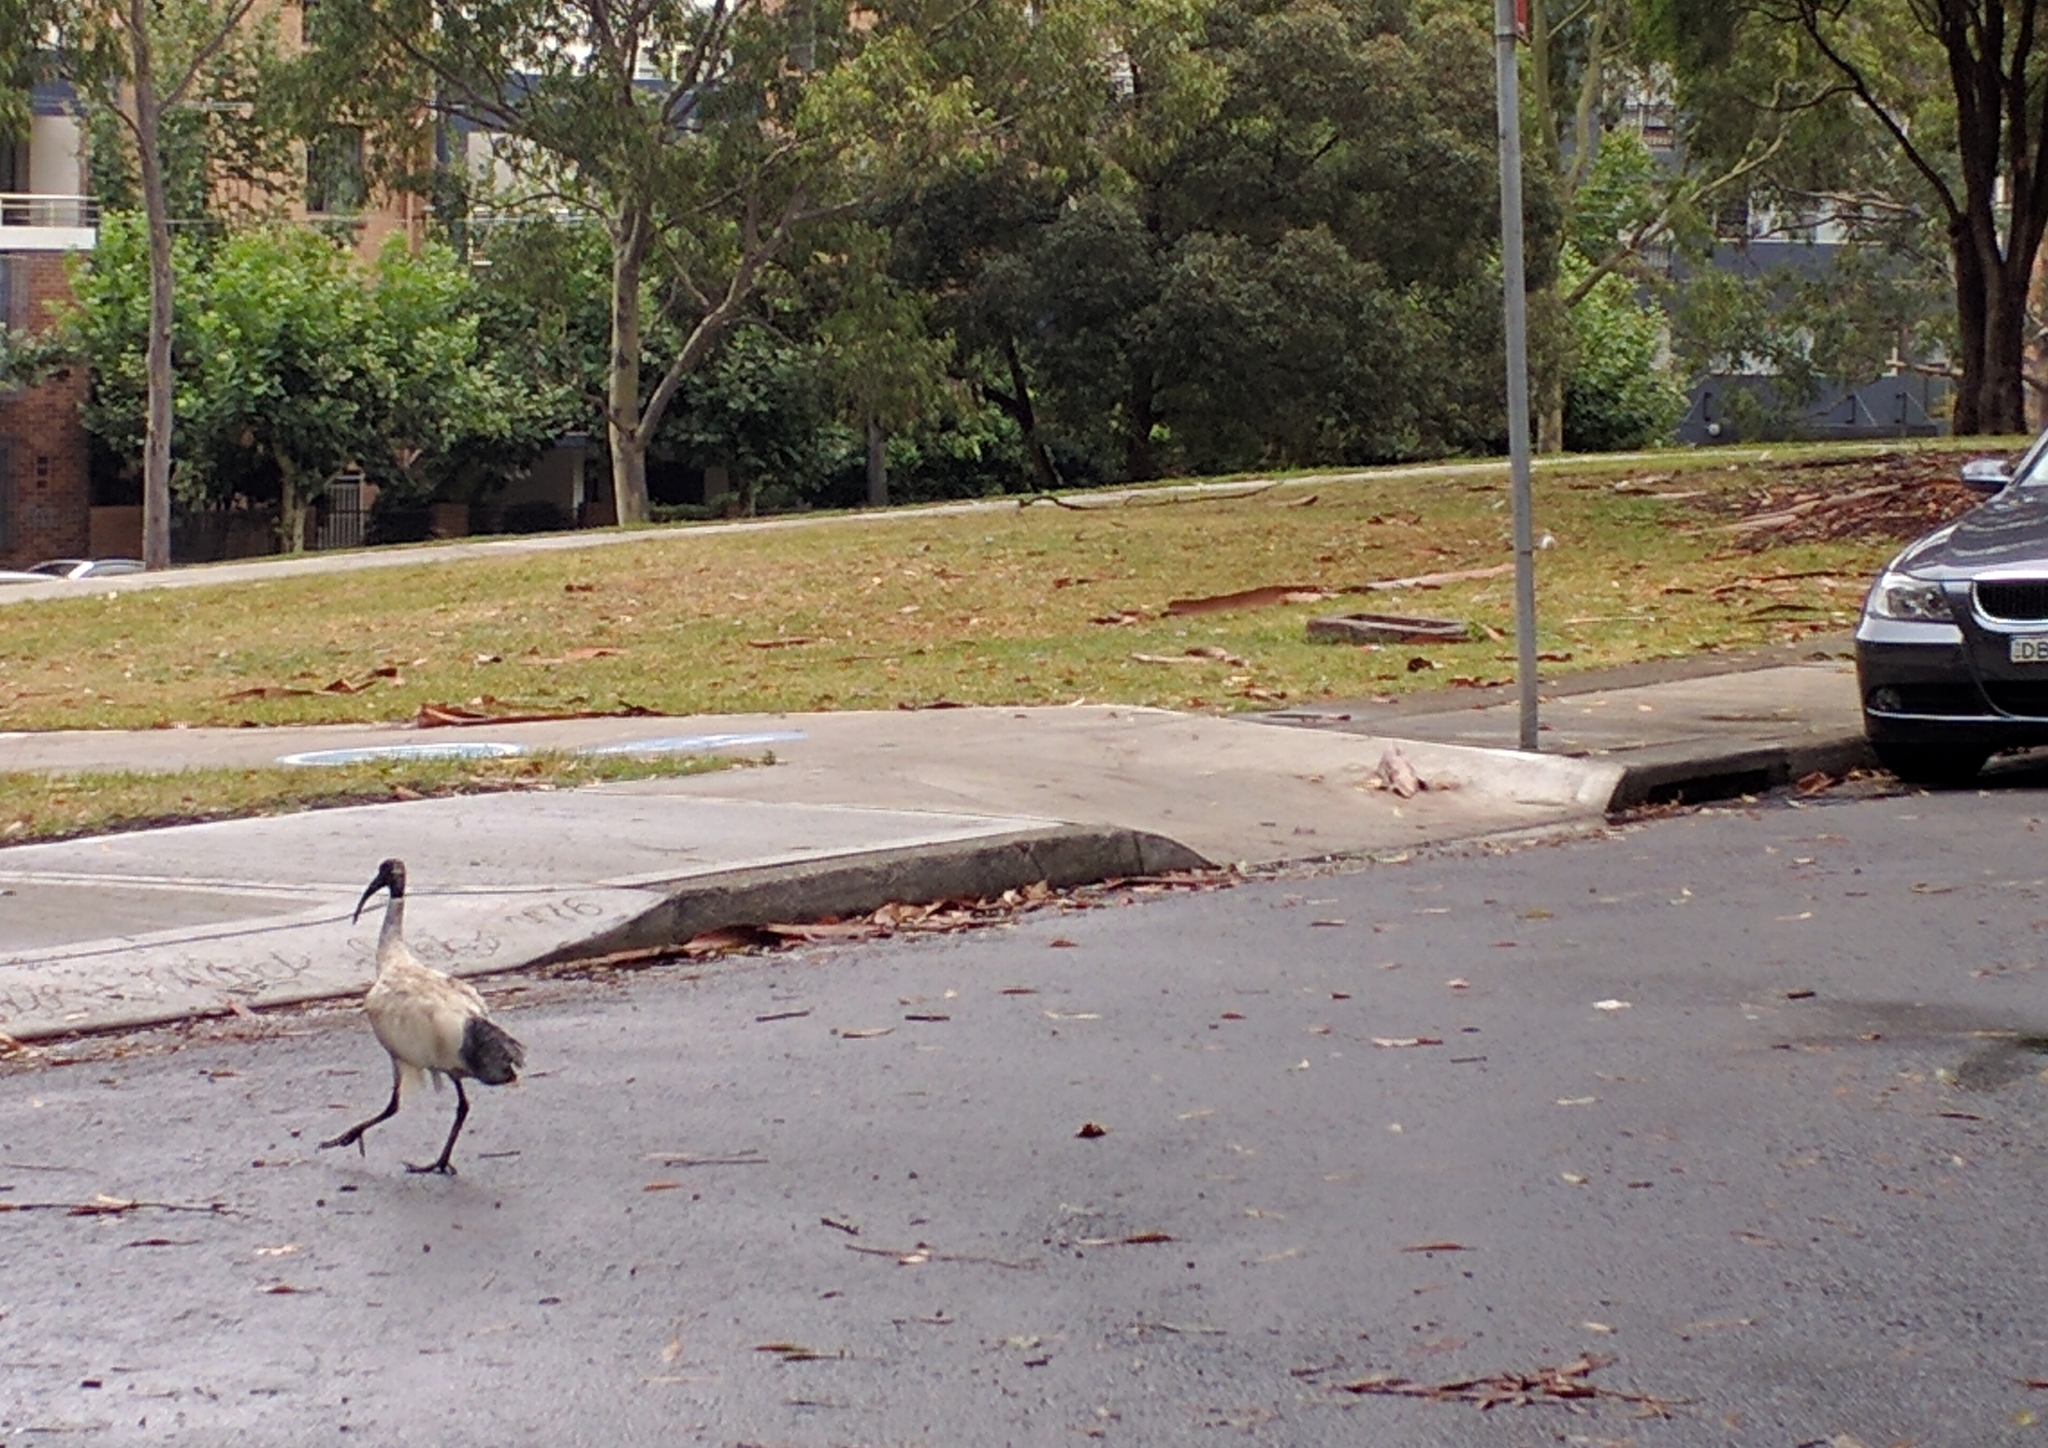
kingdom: Animalia
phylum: Chordata
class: Aves
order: Pelecaniformes
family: Threskiornithidae
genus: Threskiornis
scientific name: Threskiornis molucca
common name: Australian white ibis
